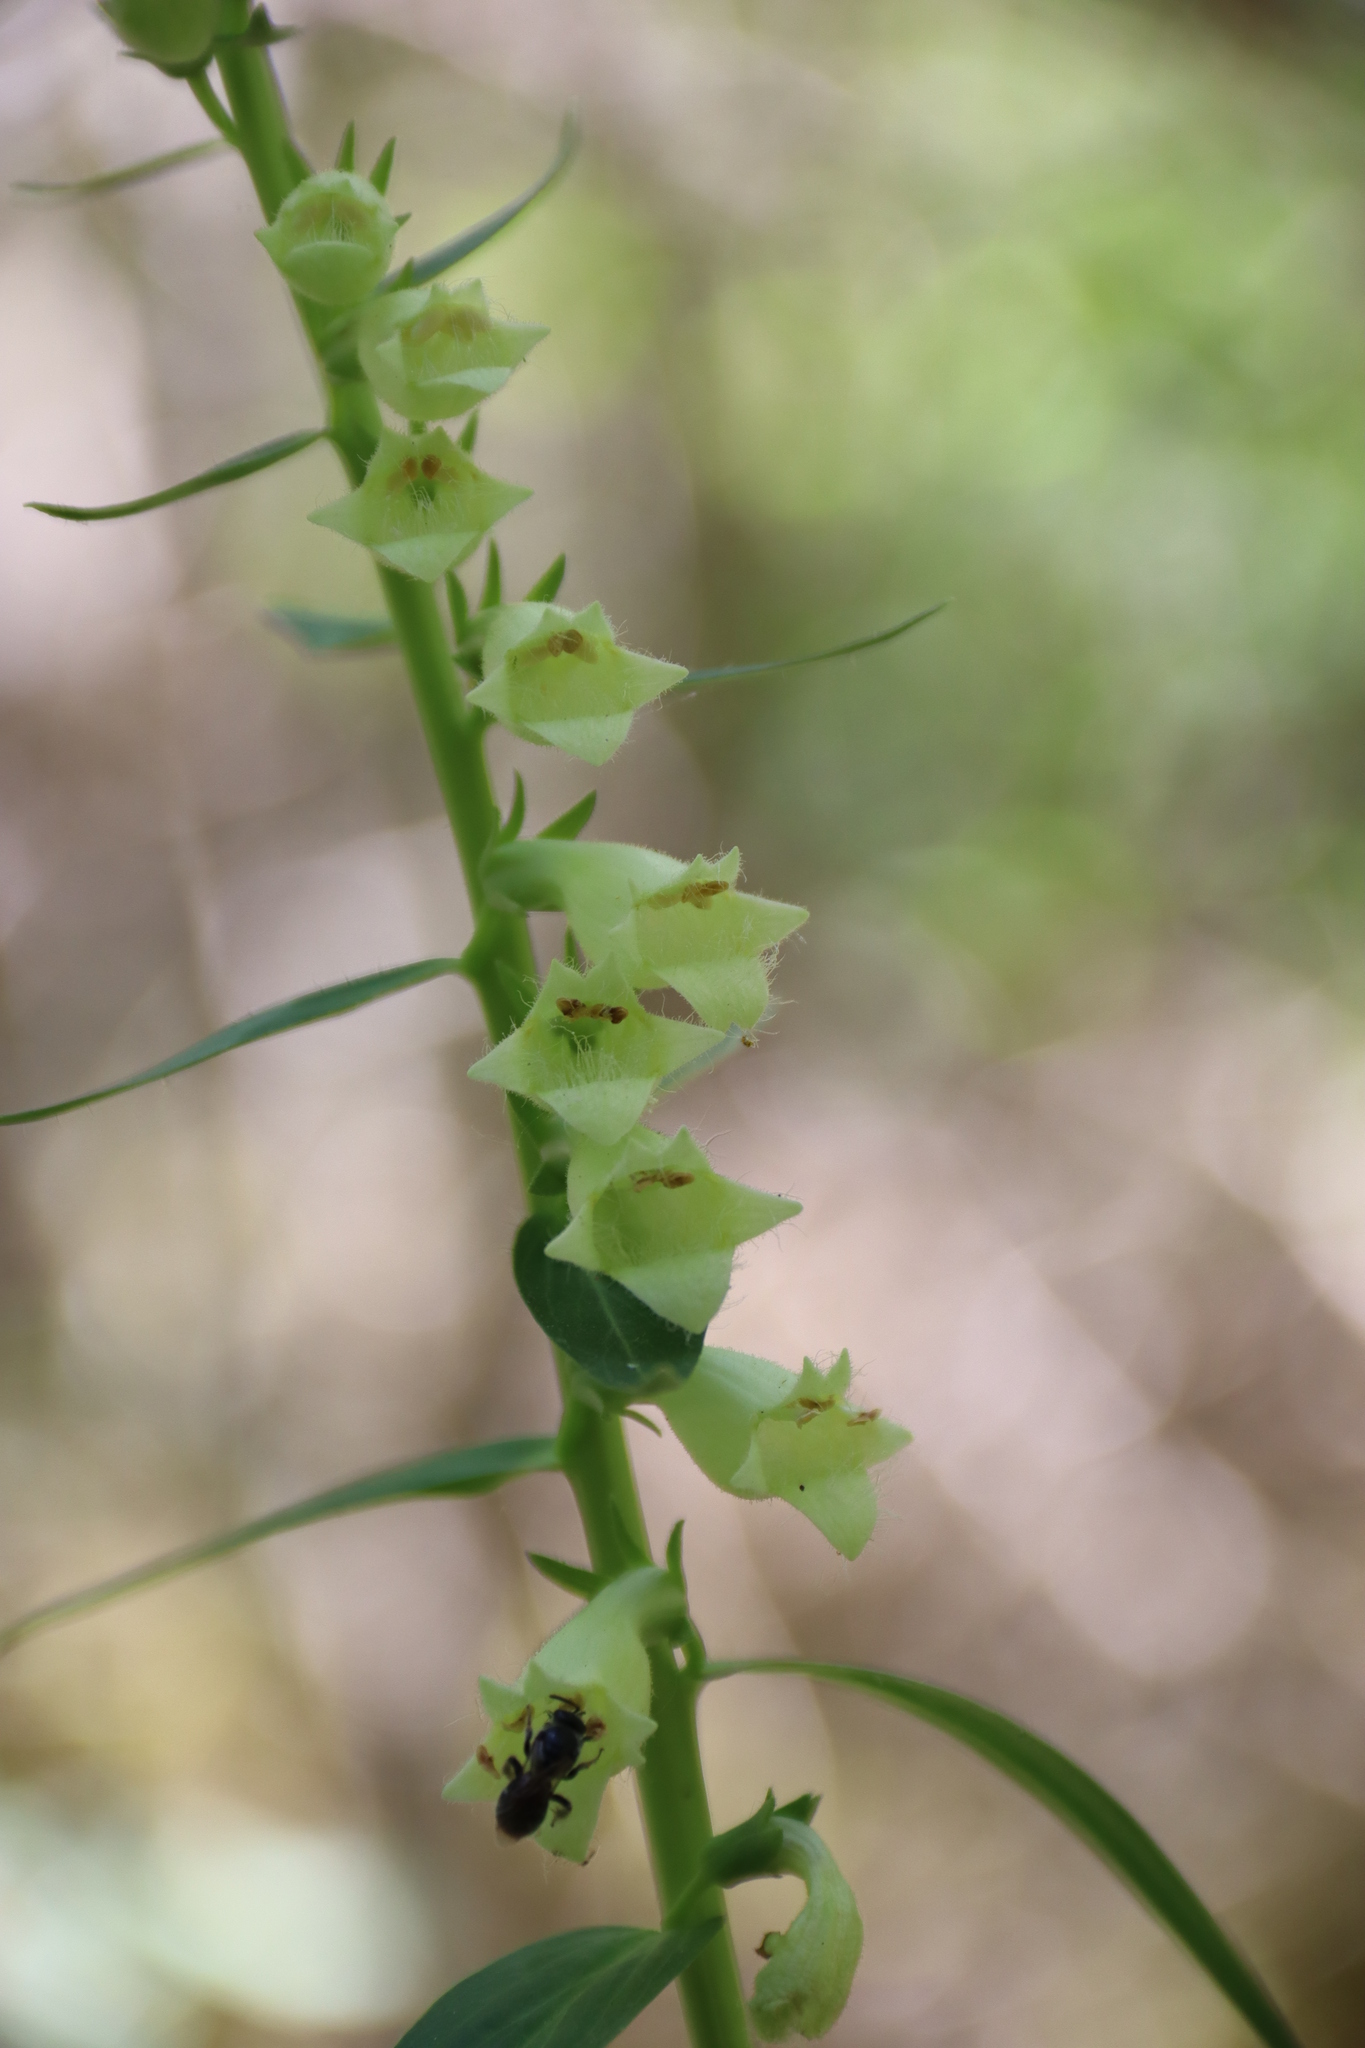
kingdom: Plantae
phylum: Tracheophyta
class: Magnoliopsida
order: Lamiales
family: Plantaginaceae
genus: Digitalis
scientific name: Digitalis lutea
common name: Straw foxglove
